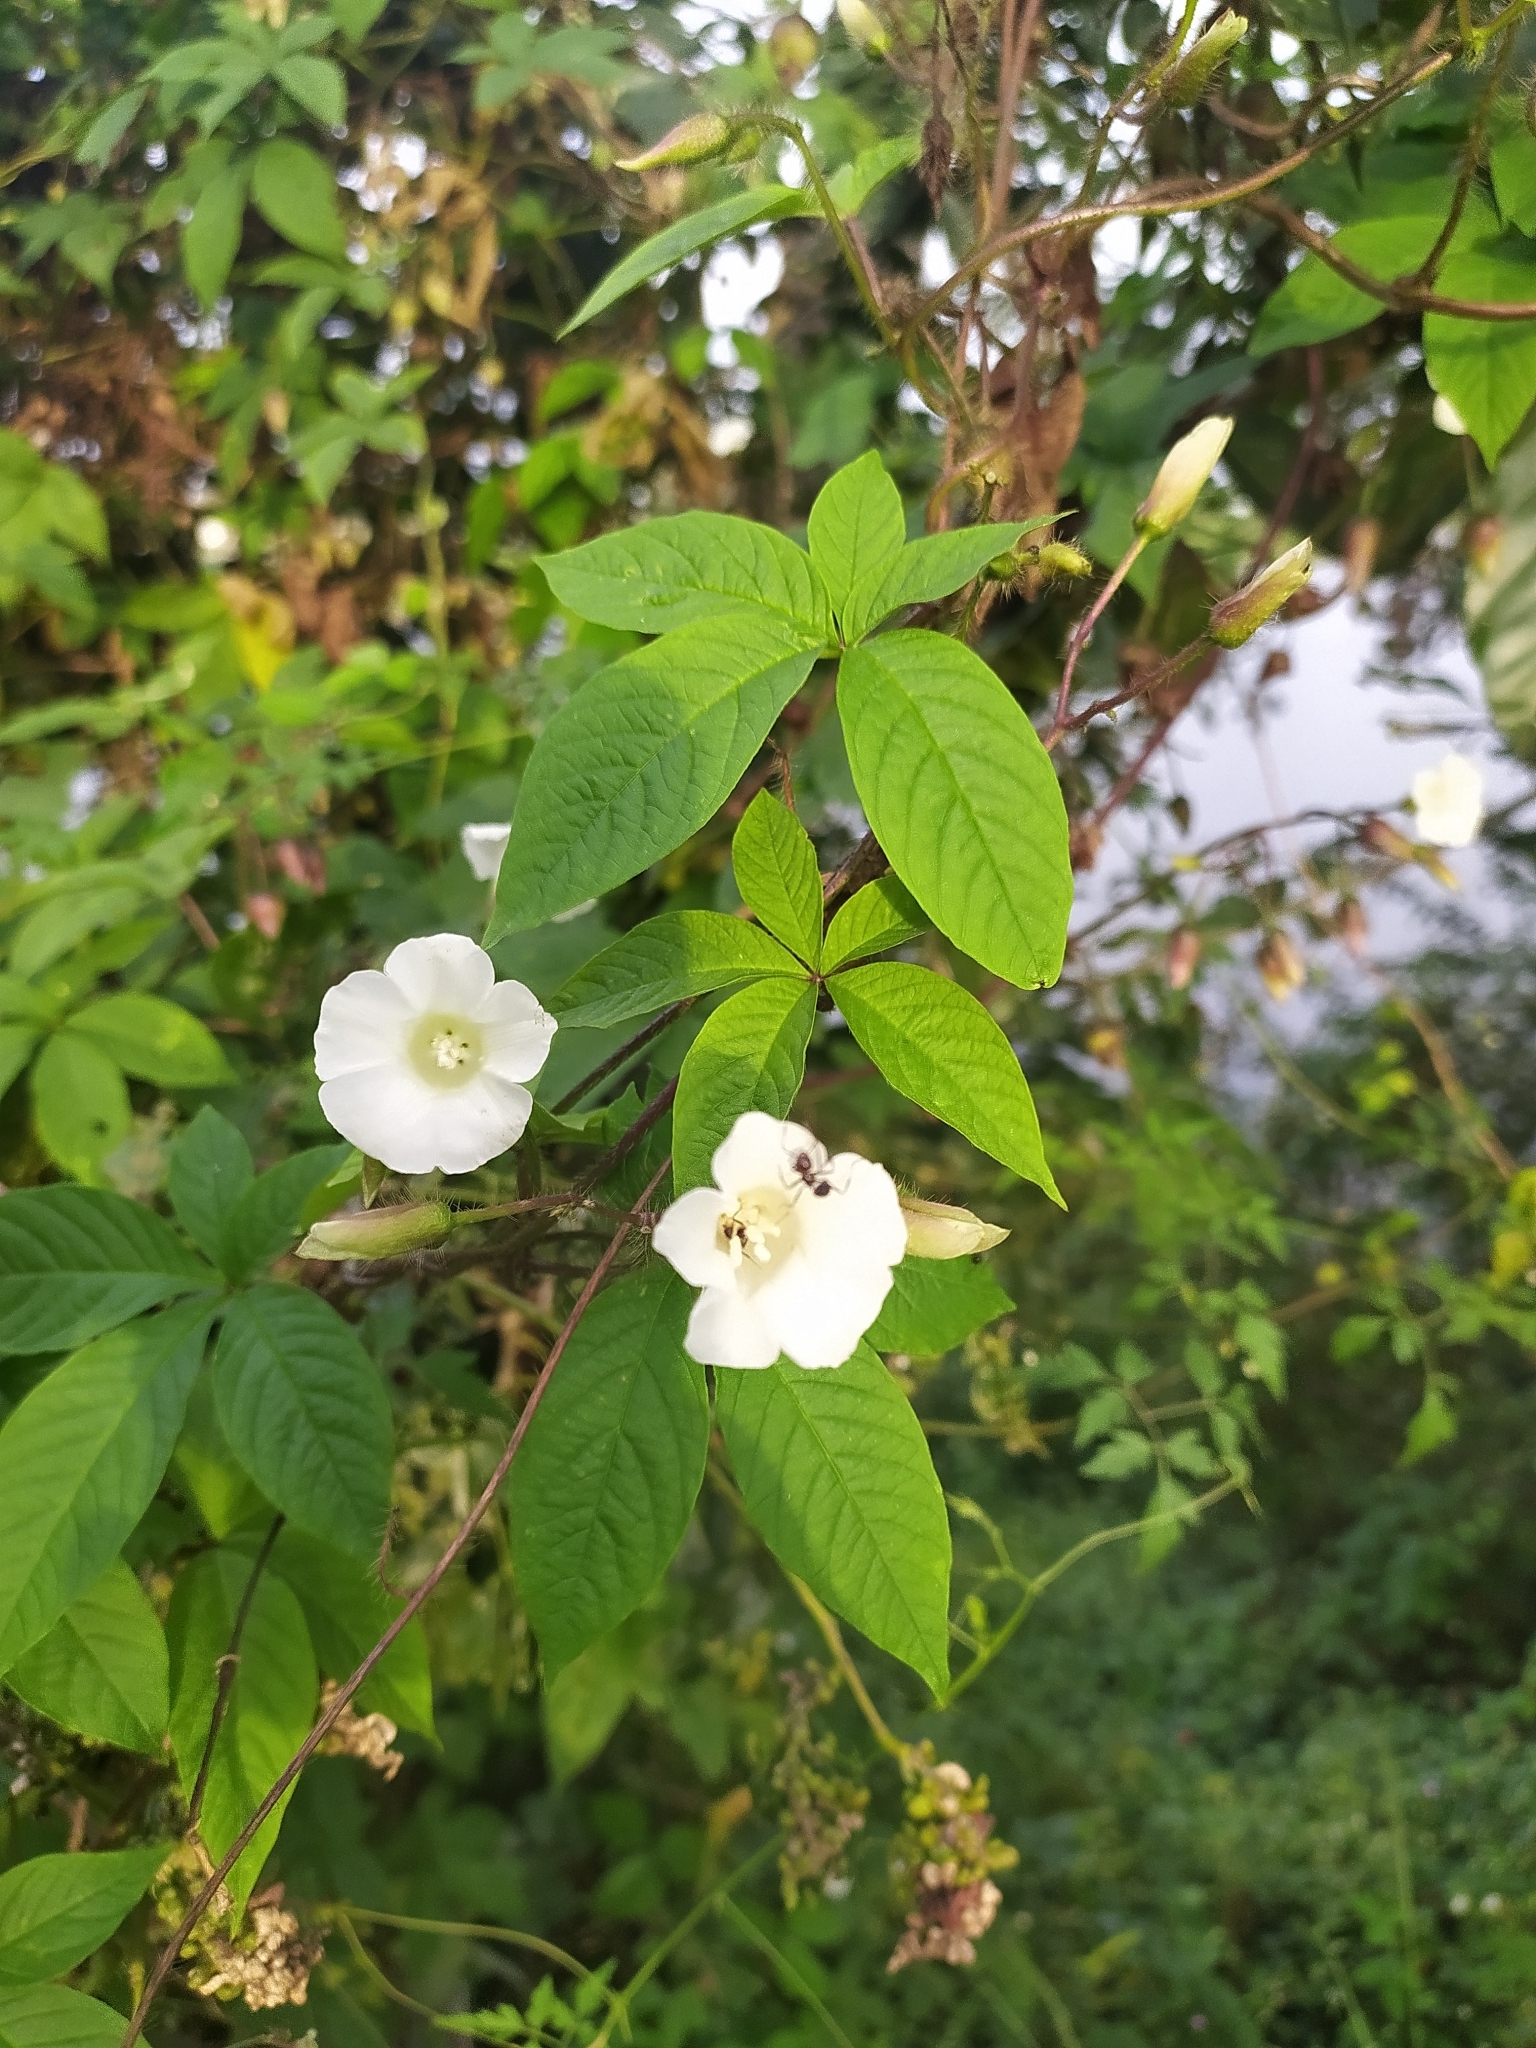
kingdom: Plantae
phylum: Tracheophyta
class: Magnoliopsida
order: Solanales
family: Convolvulaceae
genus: Distimake
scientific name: Distimake aegyptius
